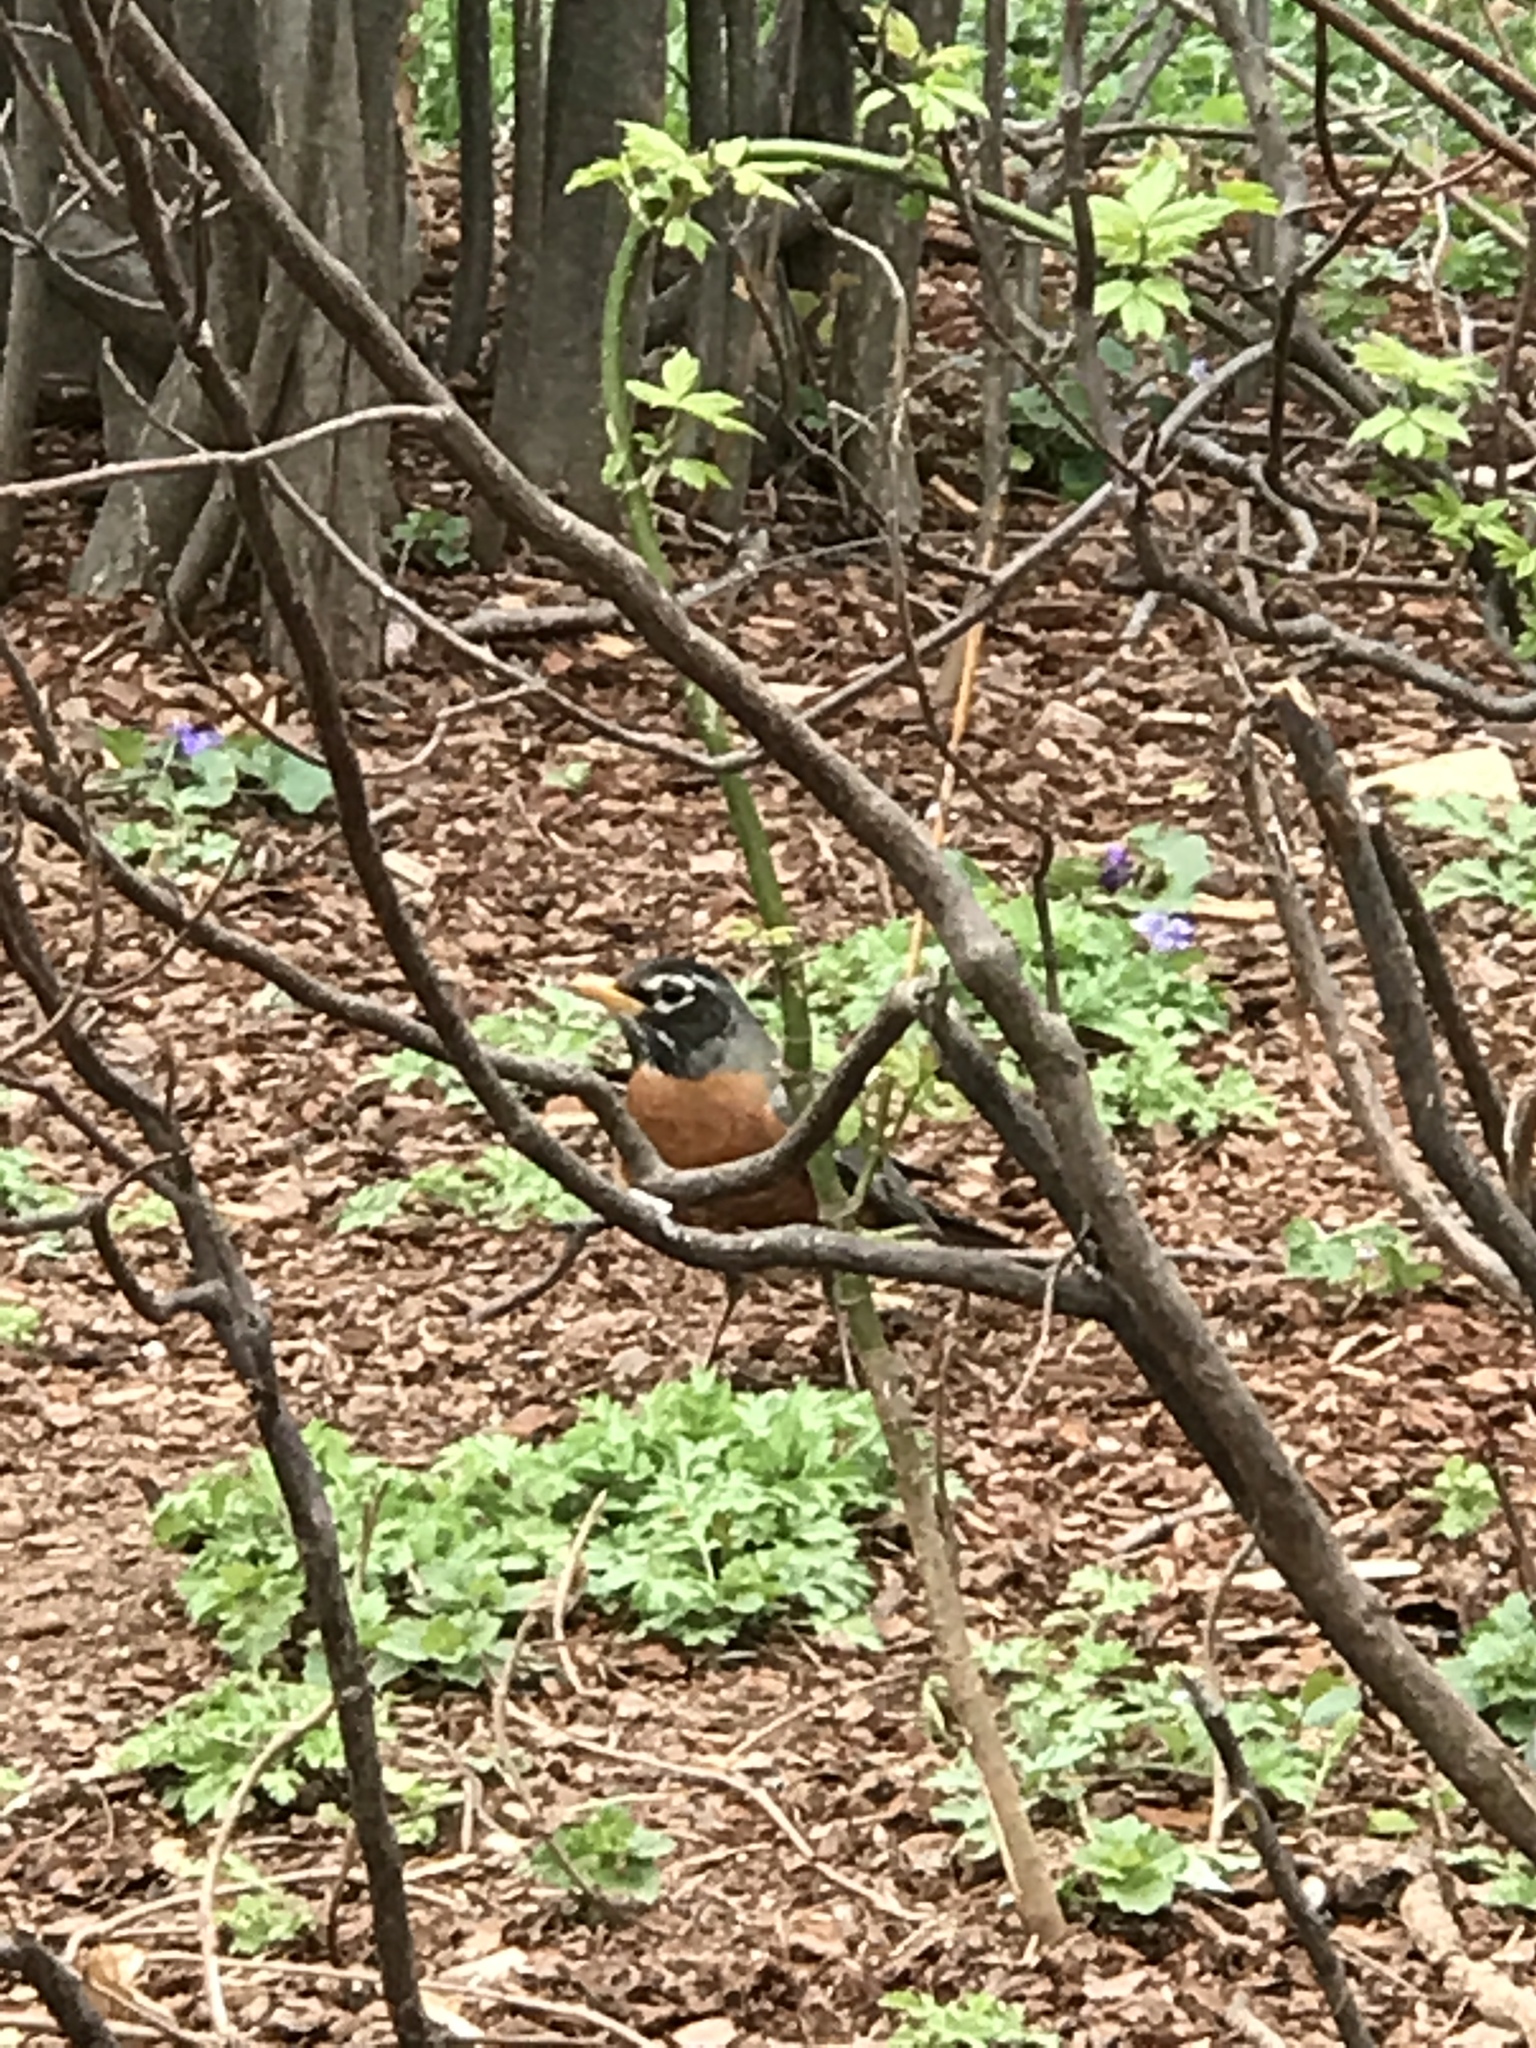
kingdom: Animalia
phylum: Chordata
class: Aves
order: Passeriformes
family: Turdidae
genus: Turdus
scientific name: Turdus migratorius
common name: American robin
